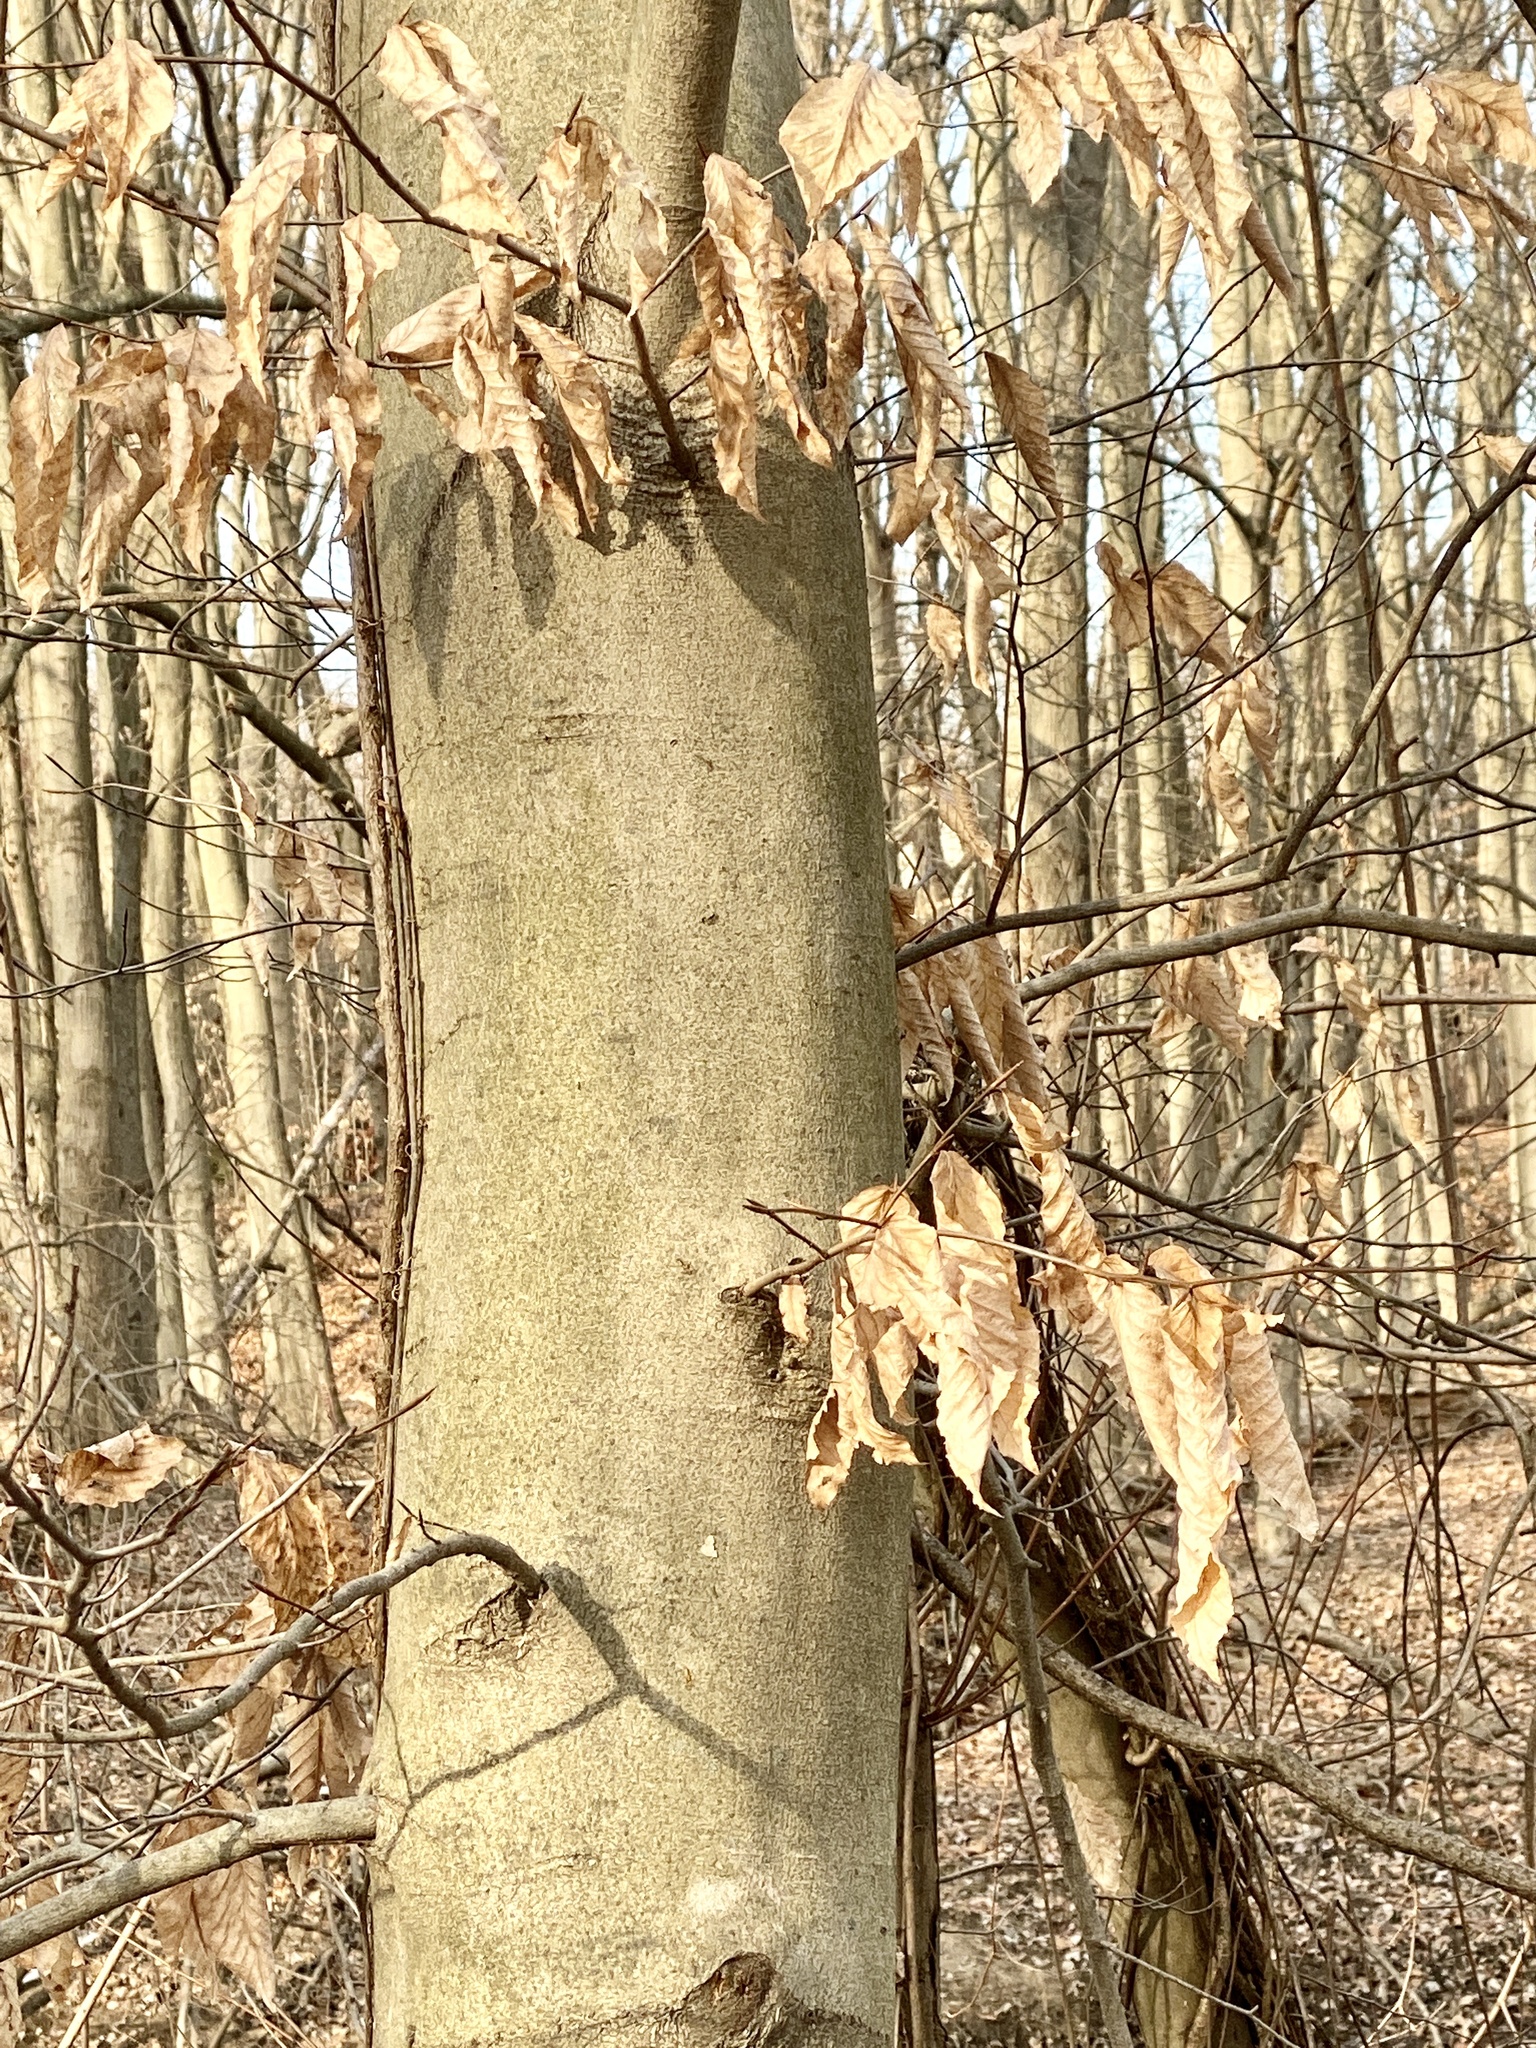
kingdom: Plantae
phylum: Tracheophyta
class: Magnoliopsida
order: Fagales
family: Fagaceae
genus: Fagus
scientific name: Fagus grandifolia
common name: American beech
